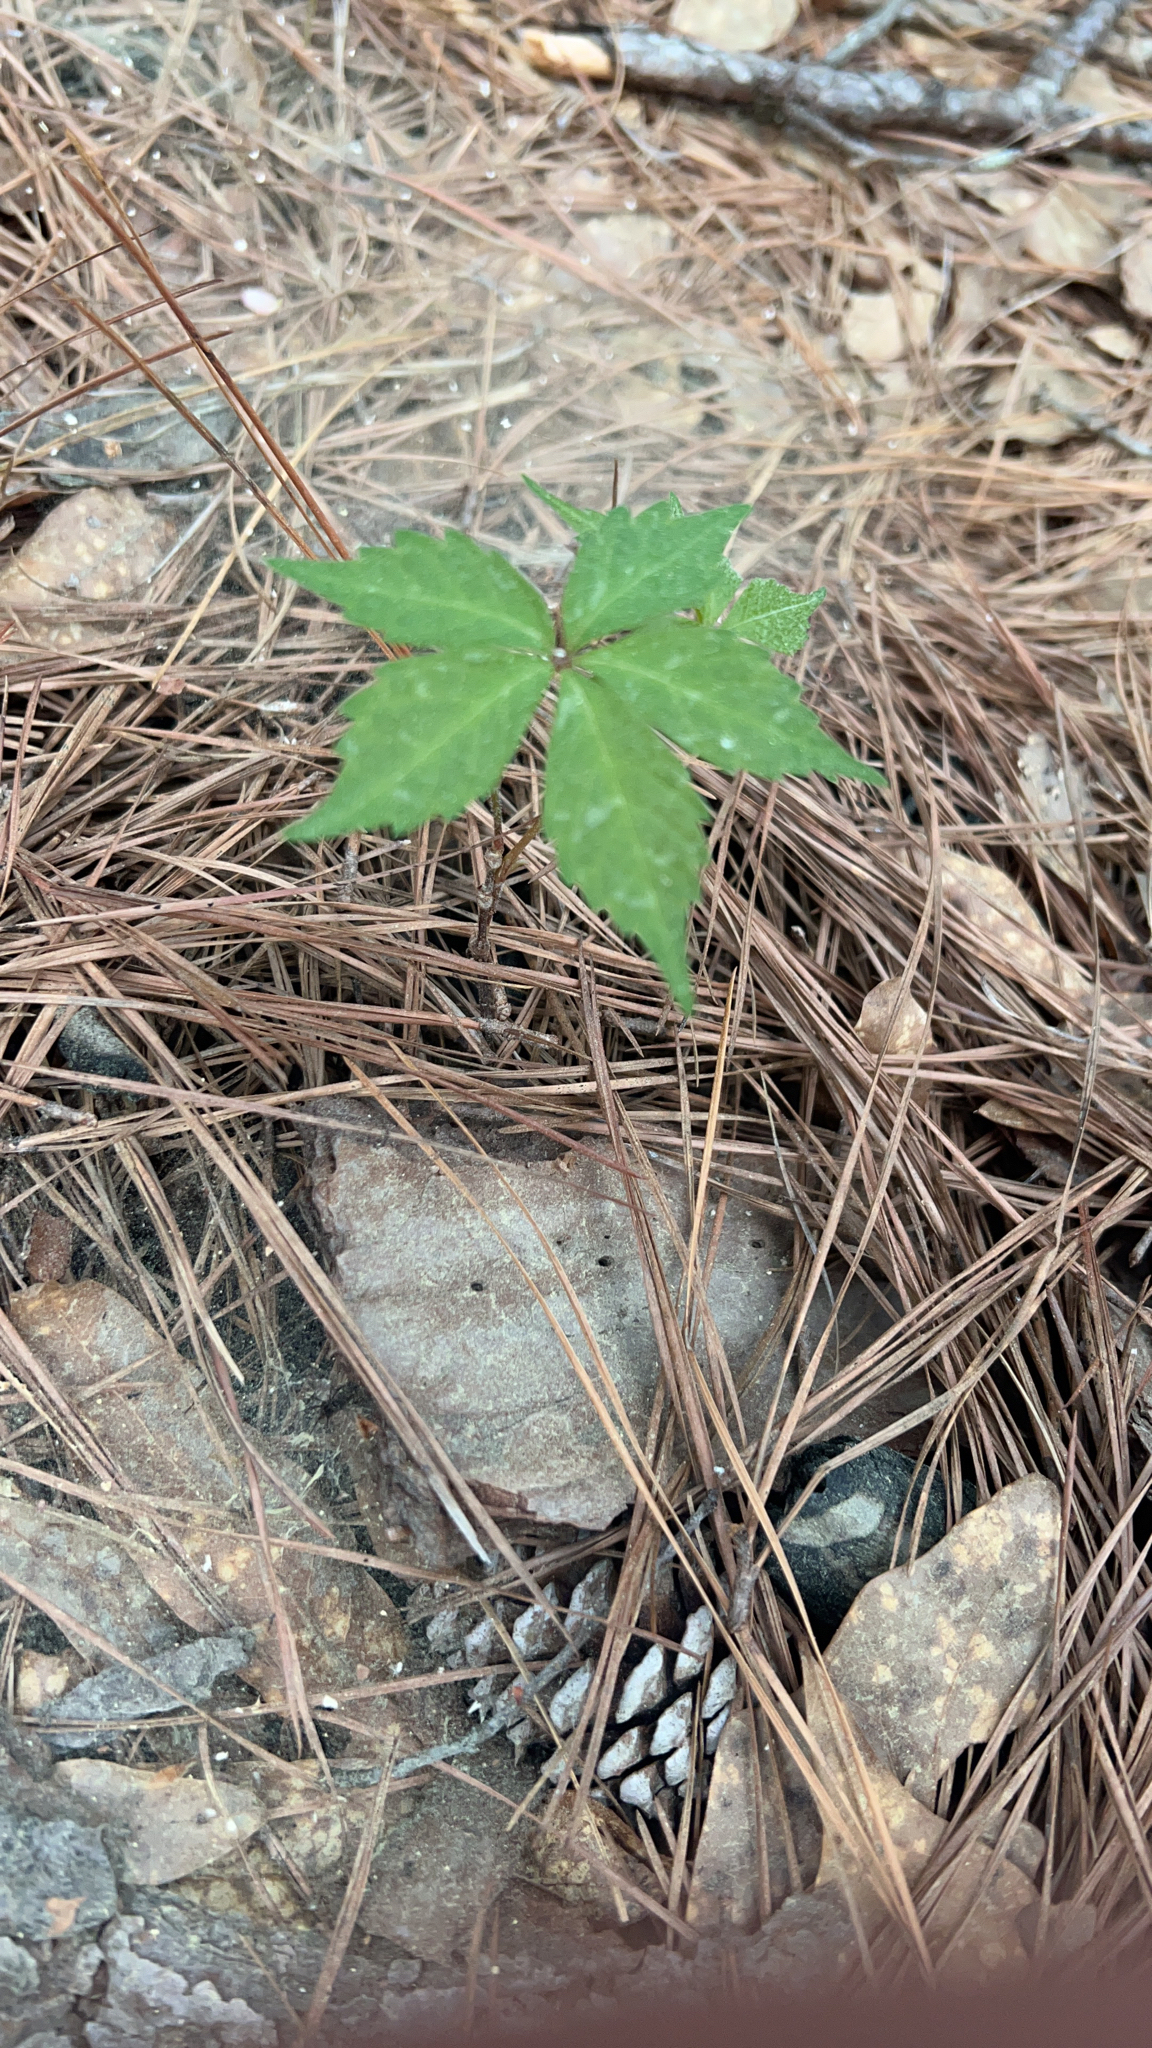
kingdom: Plantae
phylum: Tracheophyta
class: Magnoliopsida
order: Vitales
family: Vitaceae
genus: Parthenocissus
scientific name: Parthenocissus quinquefolia
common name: Virginia-creeper
